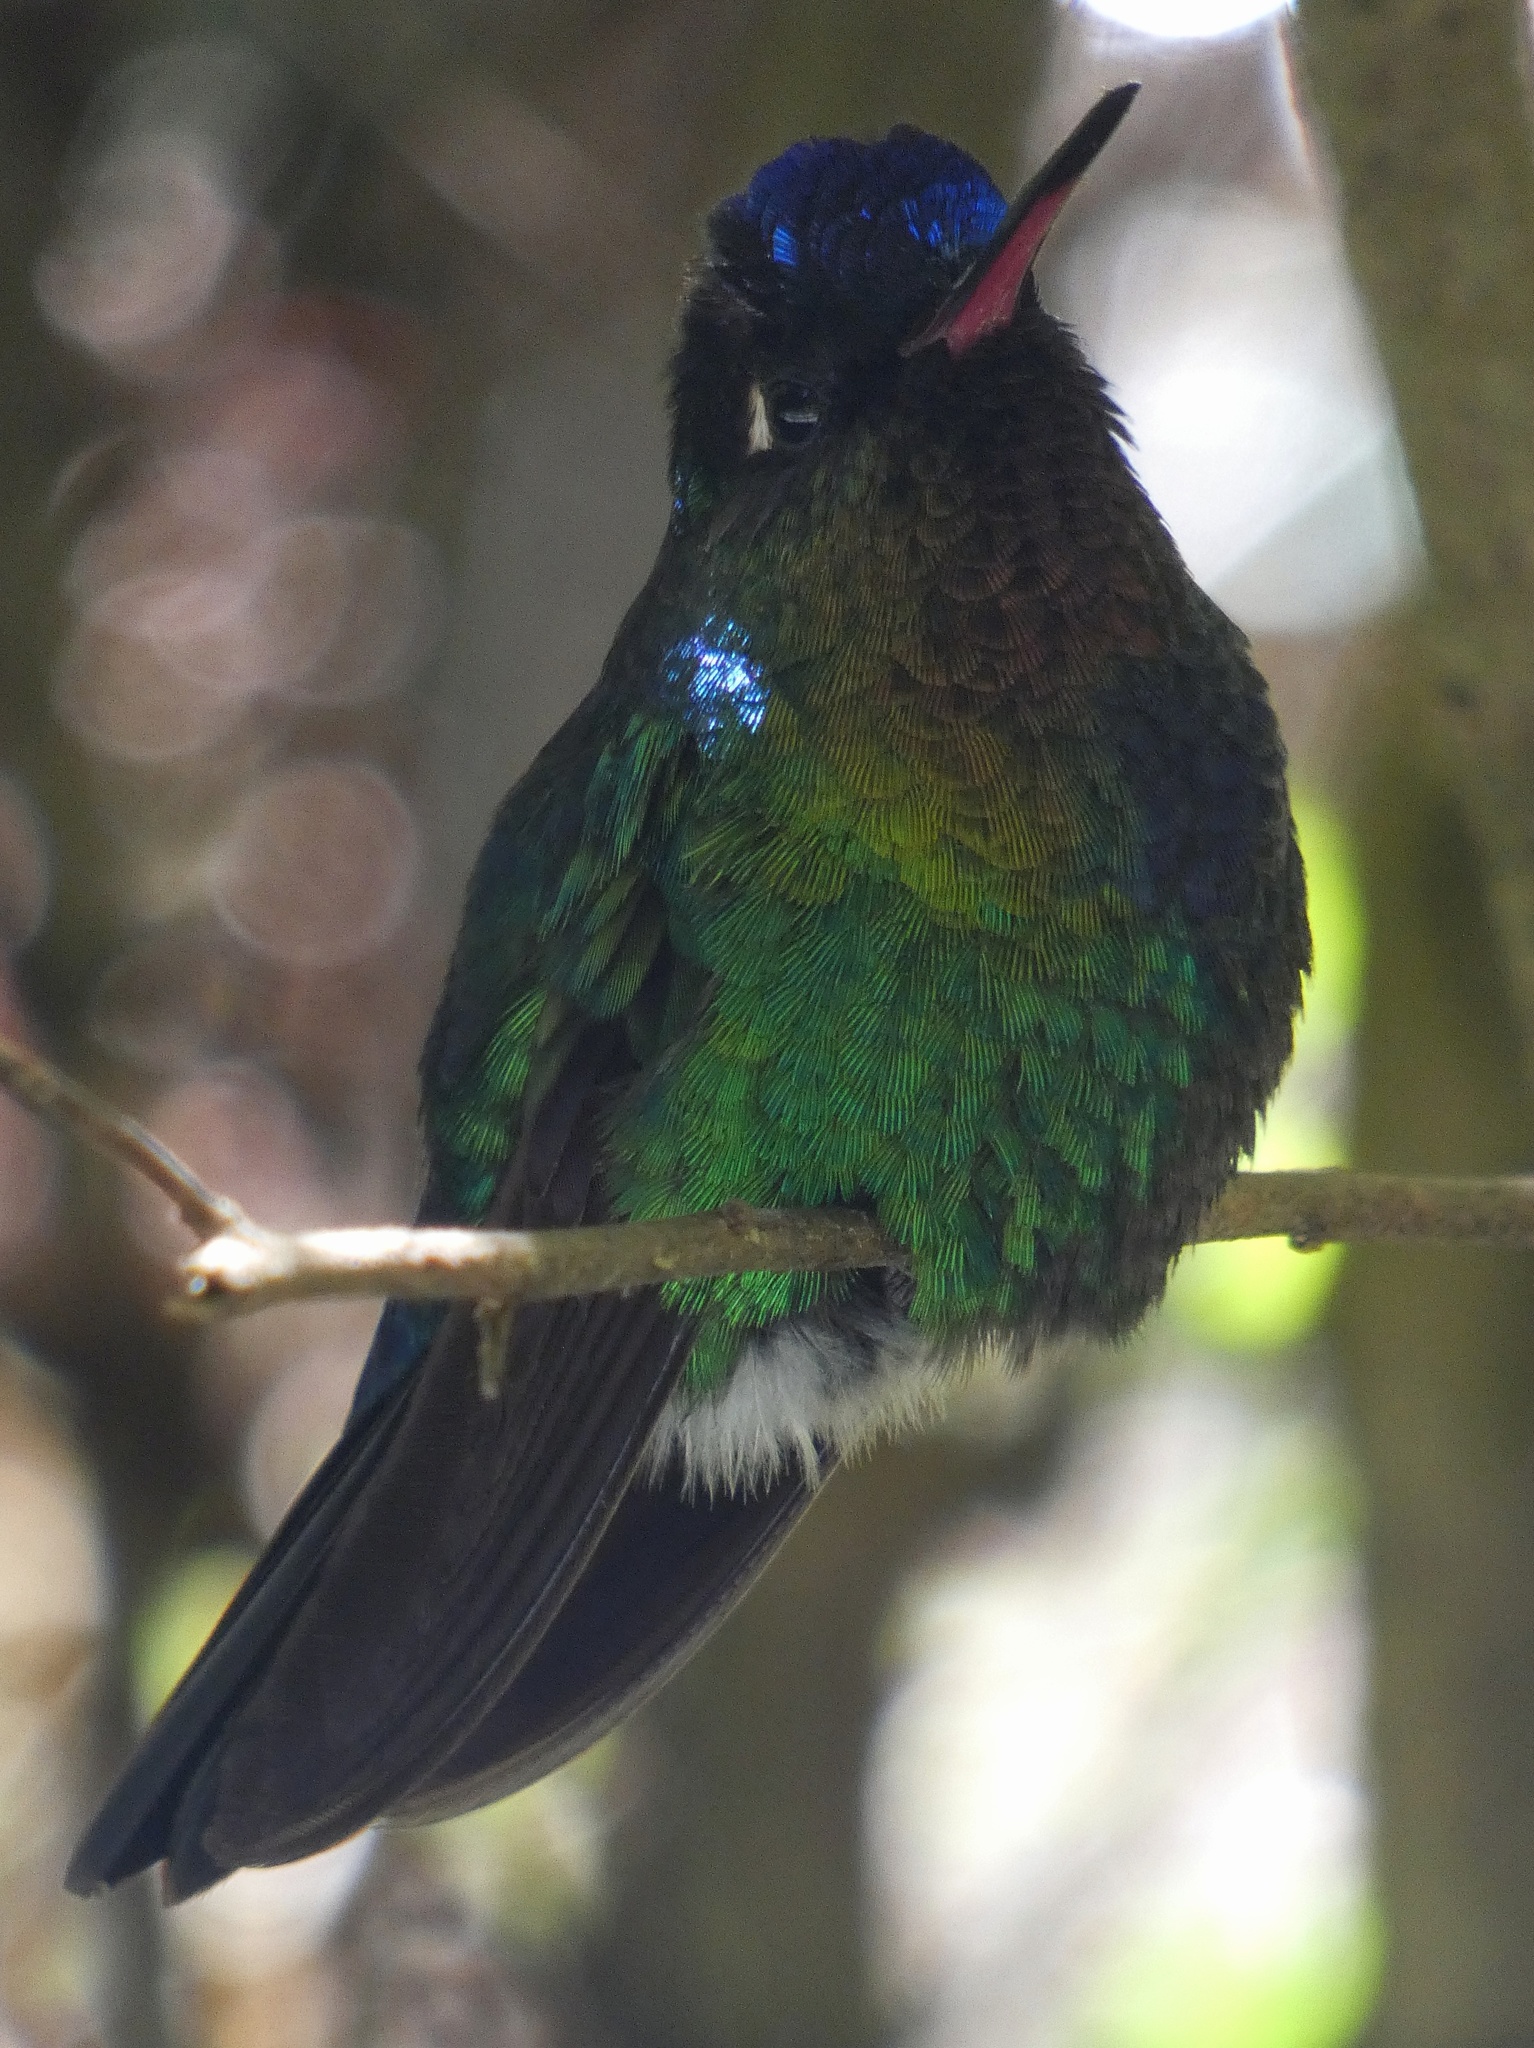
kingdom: Animalia
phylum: Chordata
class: Aves
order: Apodiformes
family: Trochilidae
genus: Panterpe
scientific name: Panterpe insignis
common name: Fiery-throated hummingbird
